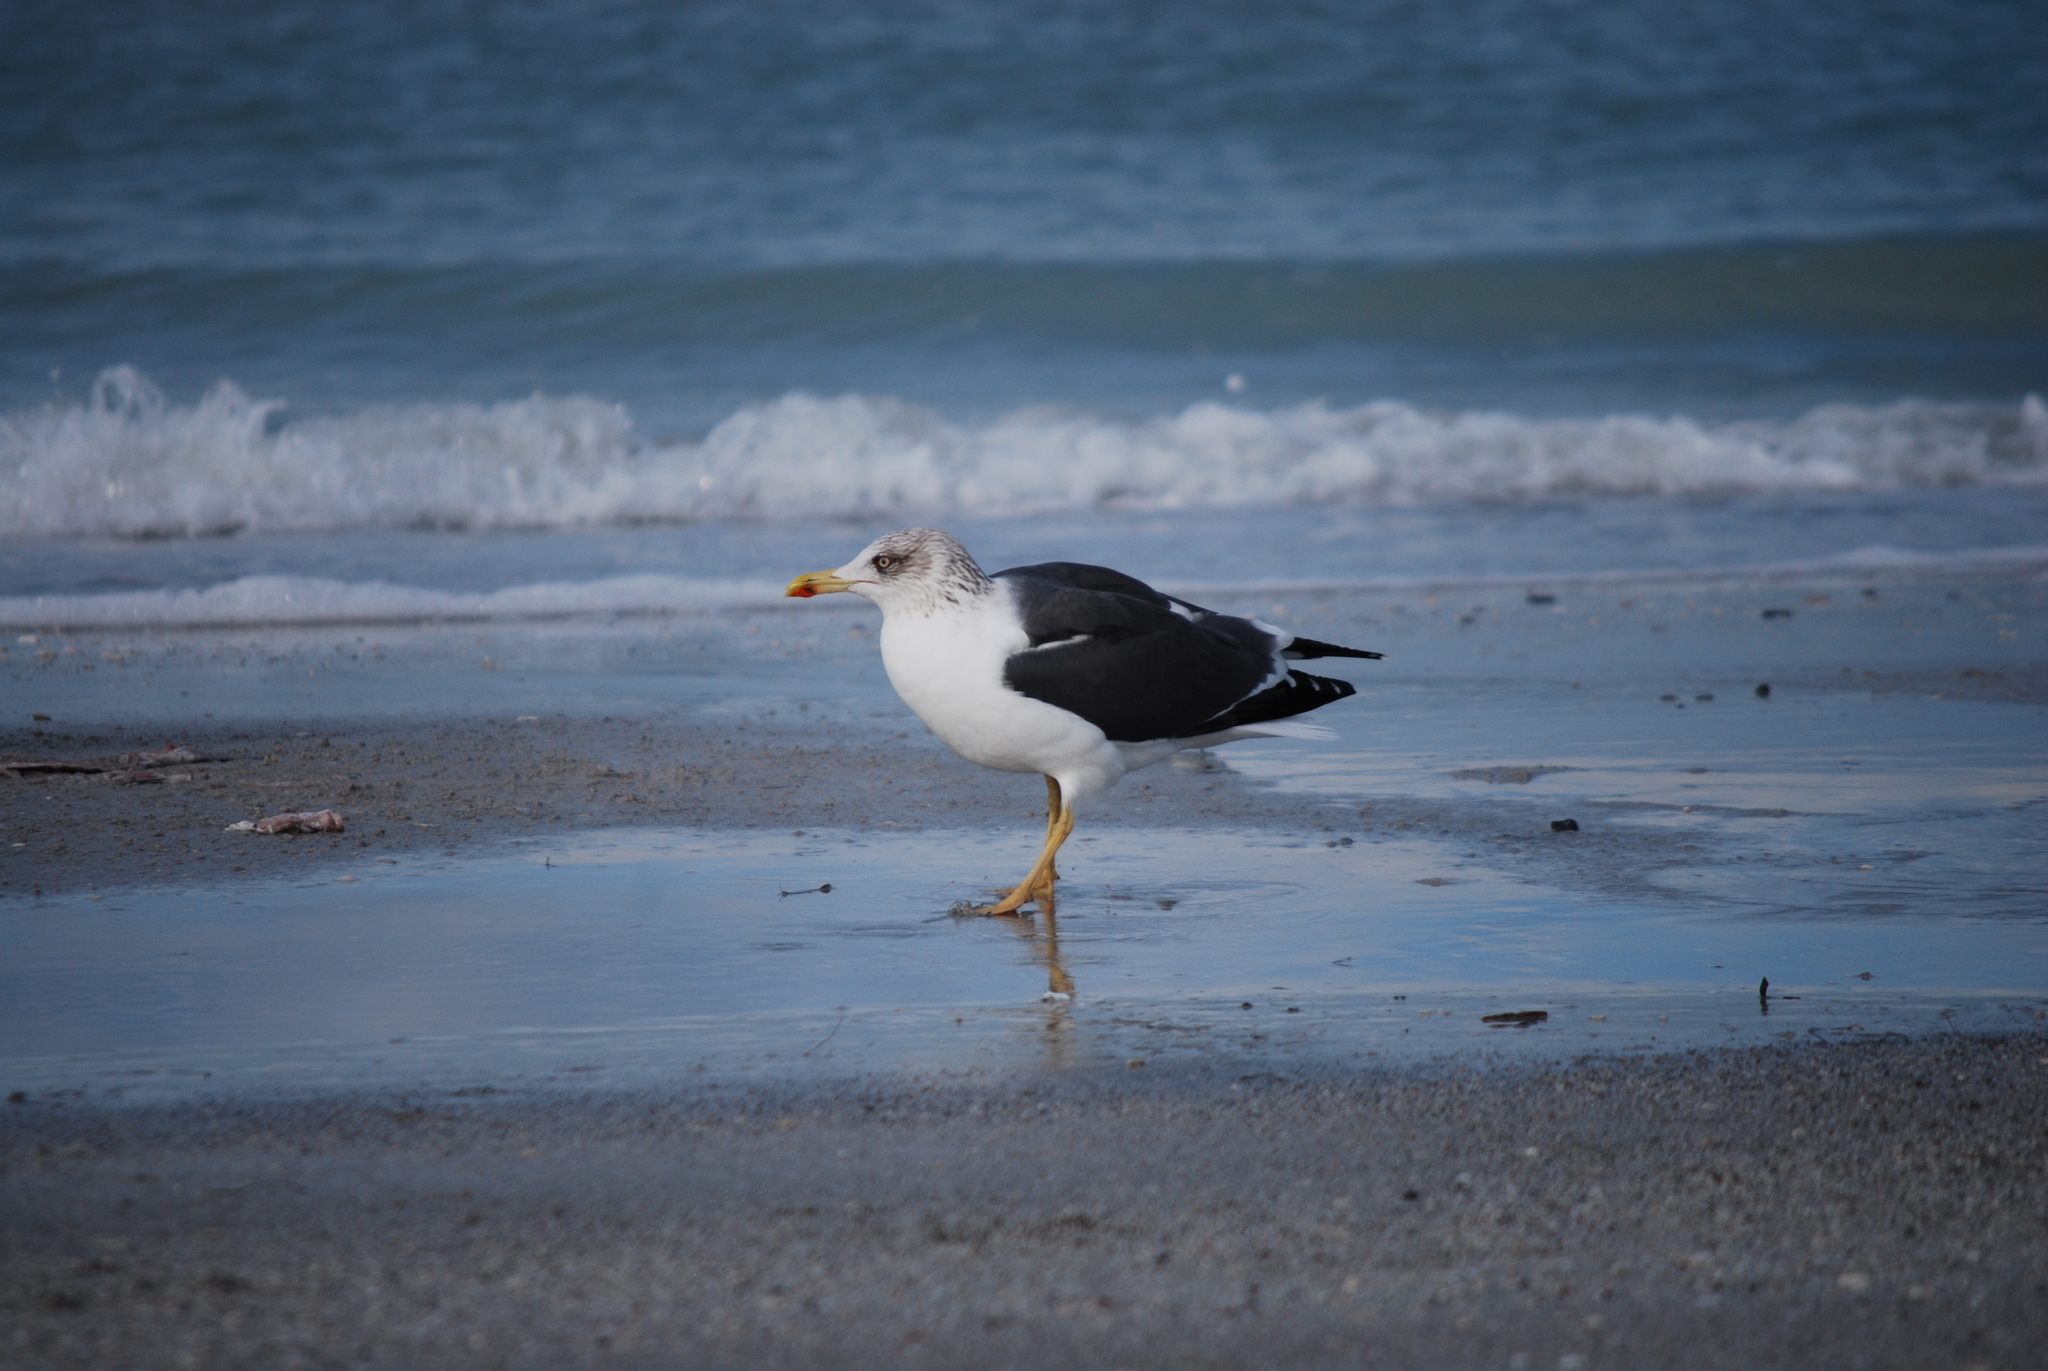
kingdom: Animalia
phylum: Chordata
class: Aves
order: Charadriiformes
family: Laridae
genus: Larus
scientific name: Larus fuscus
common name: Lesser black-backed gull
